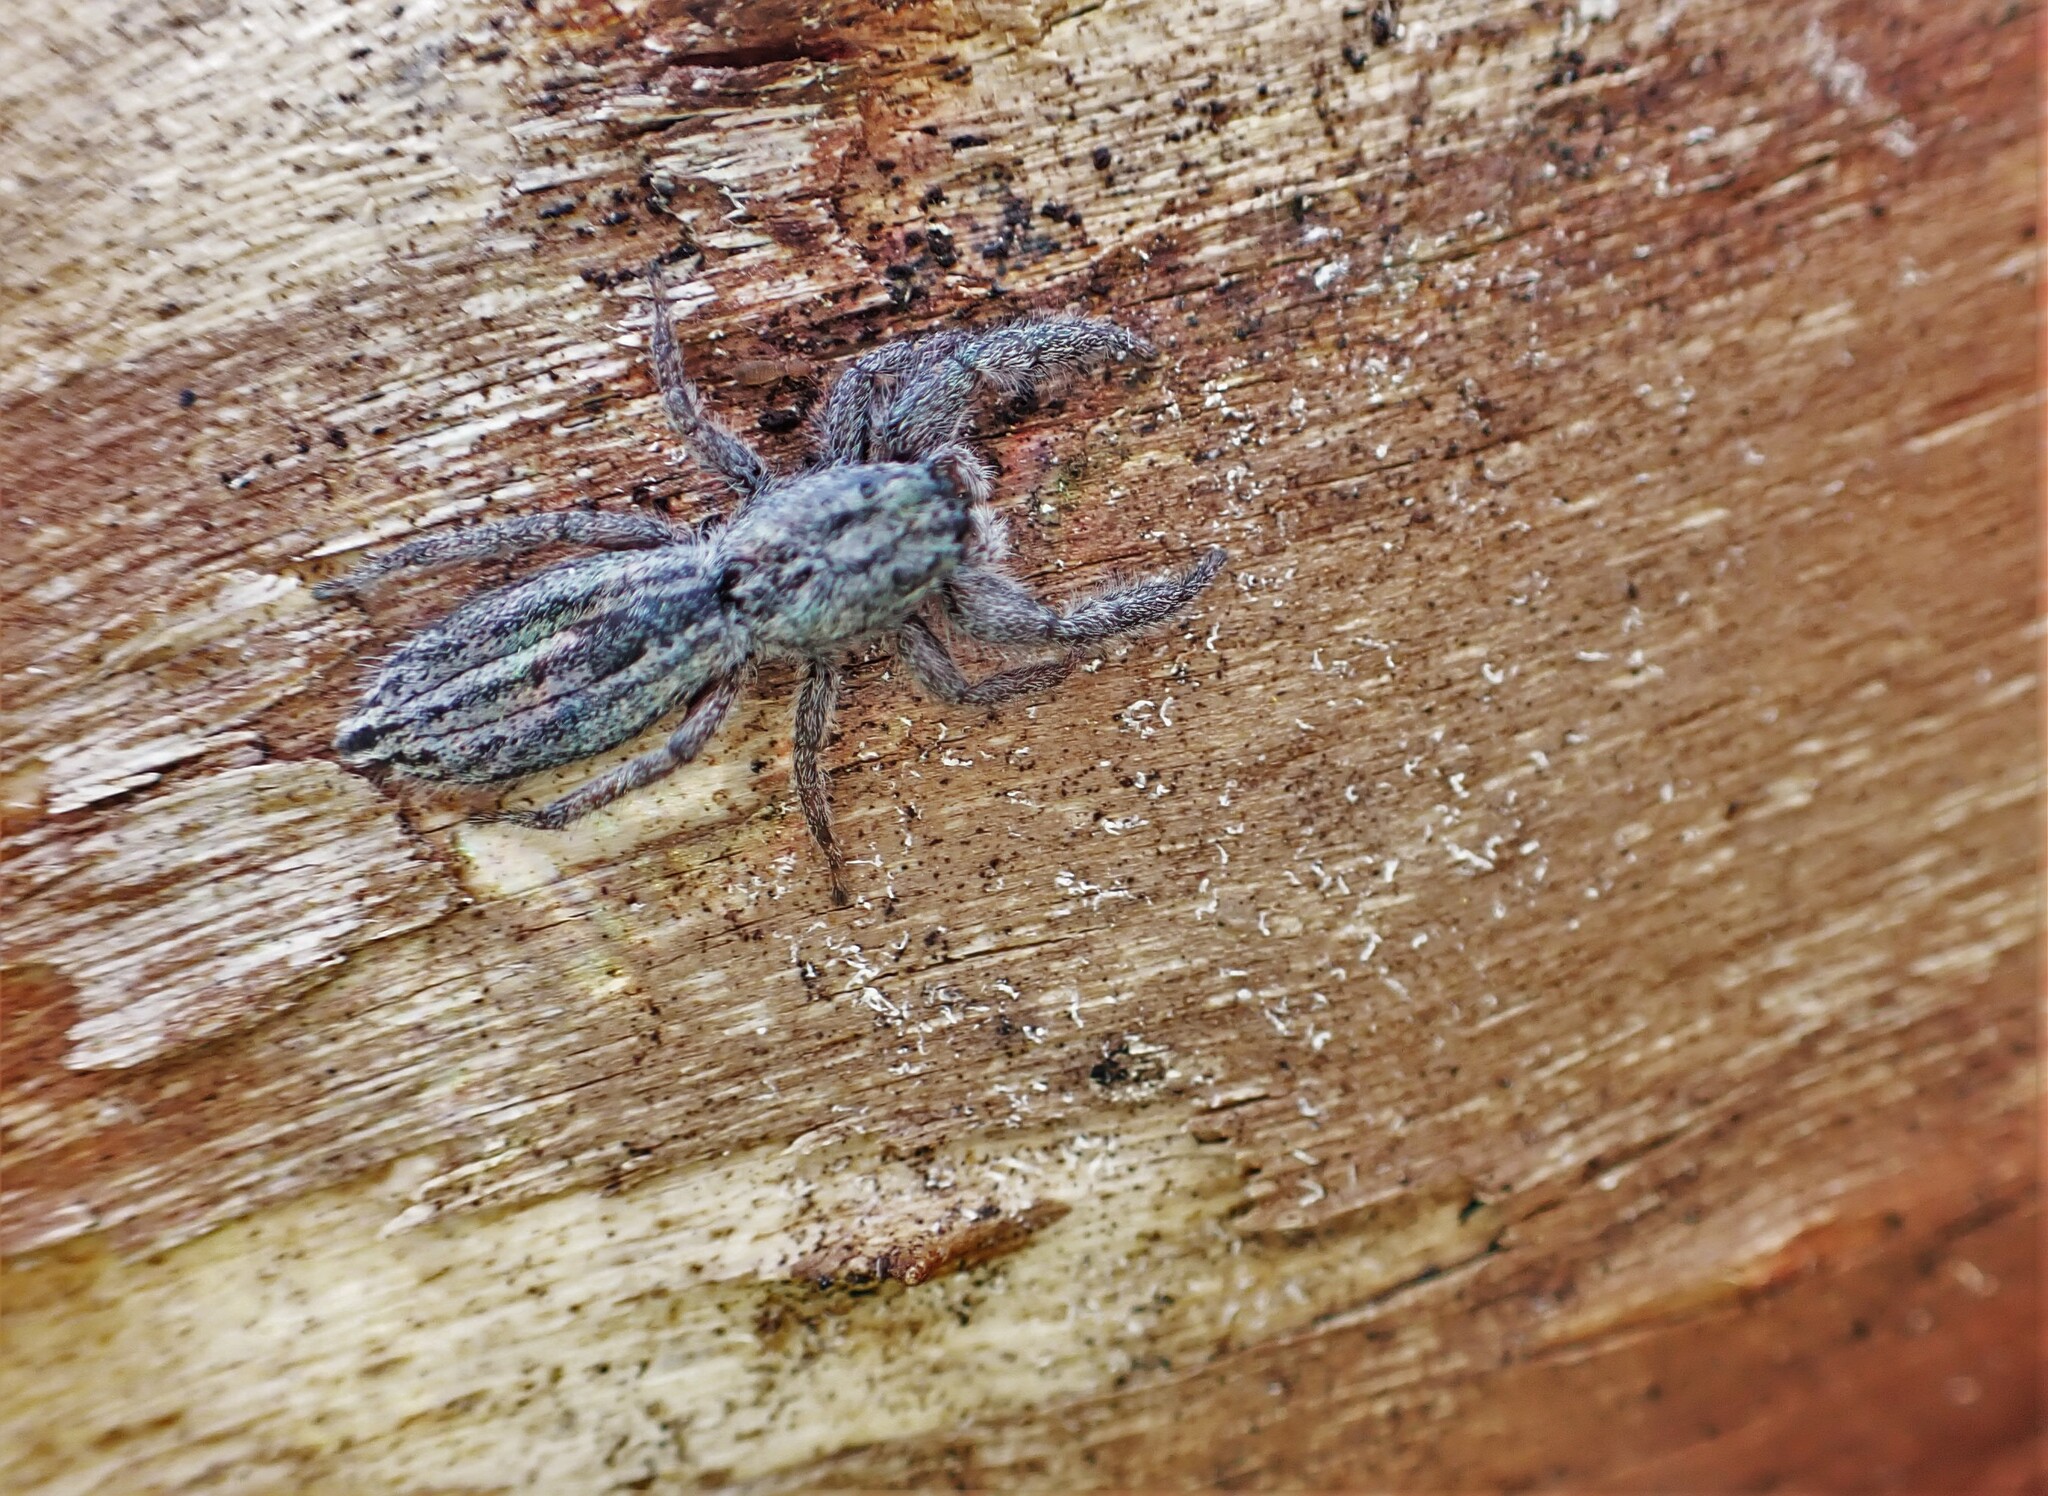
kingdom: Animalia
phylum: Arthropoda
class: Arachnida
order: Araneae
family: Salticidae
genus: Holoplatys
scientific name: Holoplatys apressus
